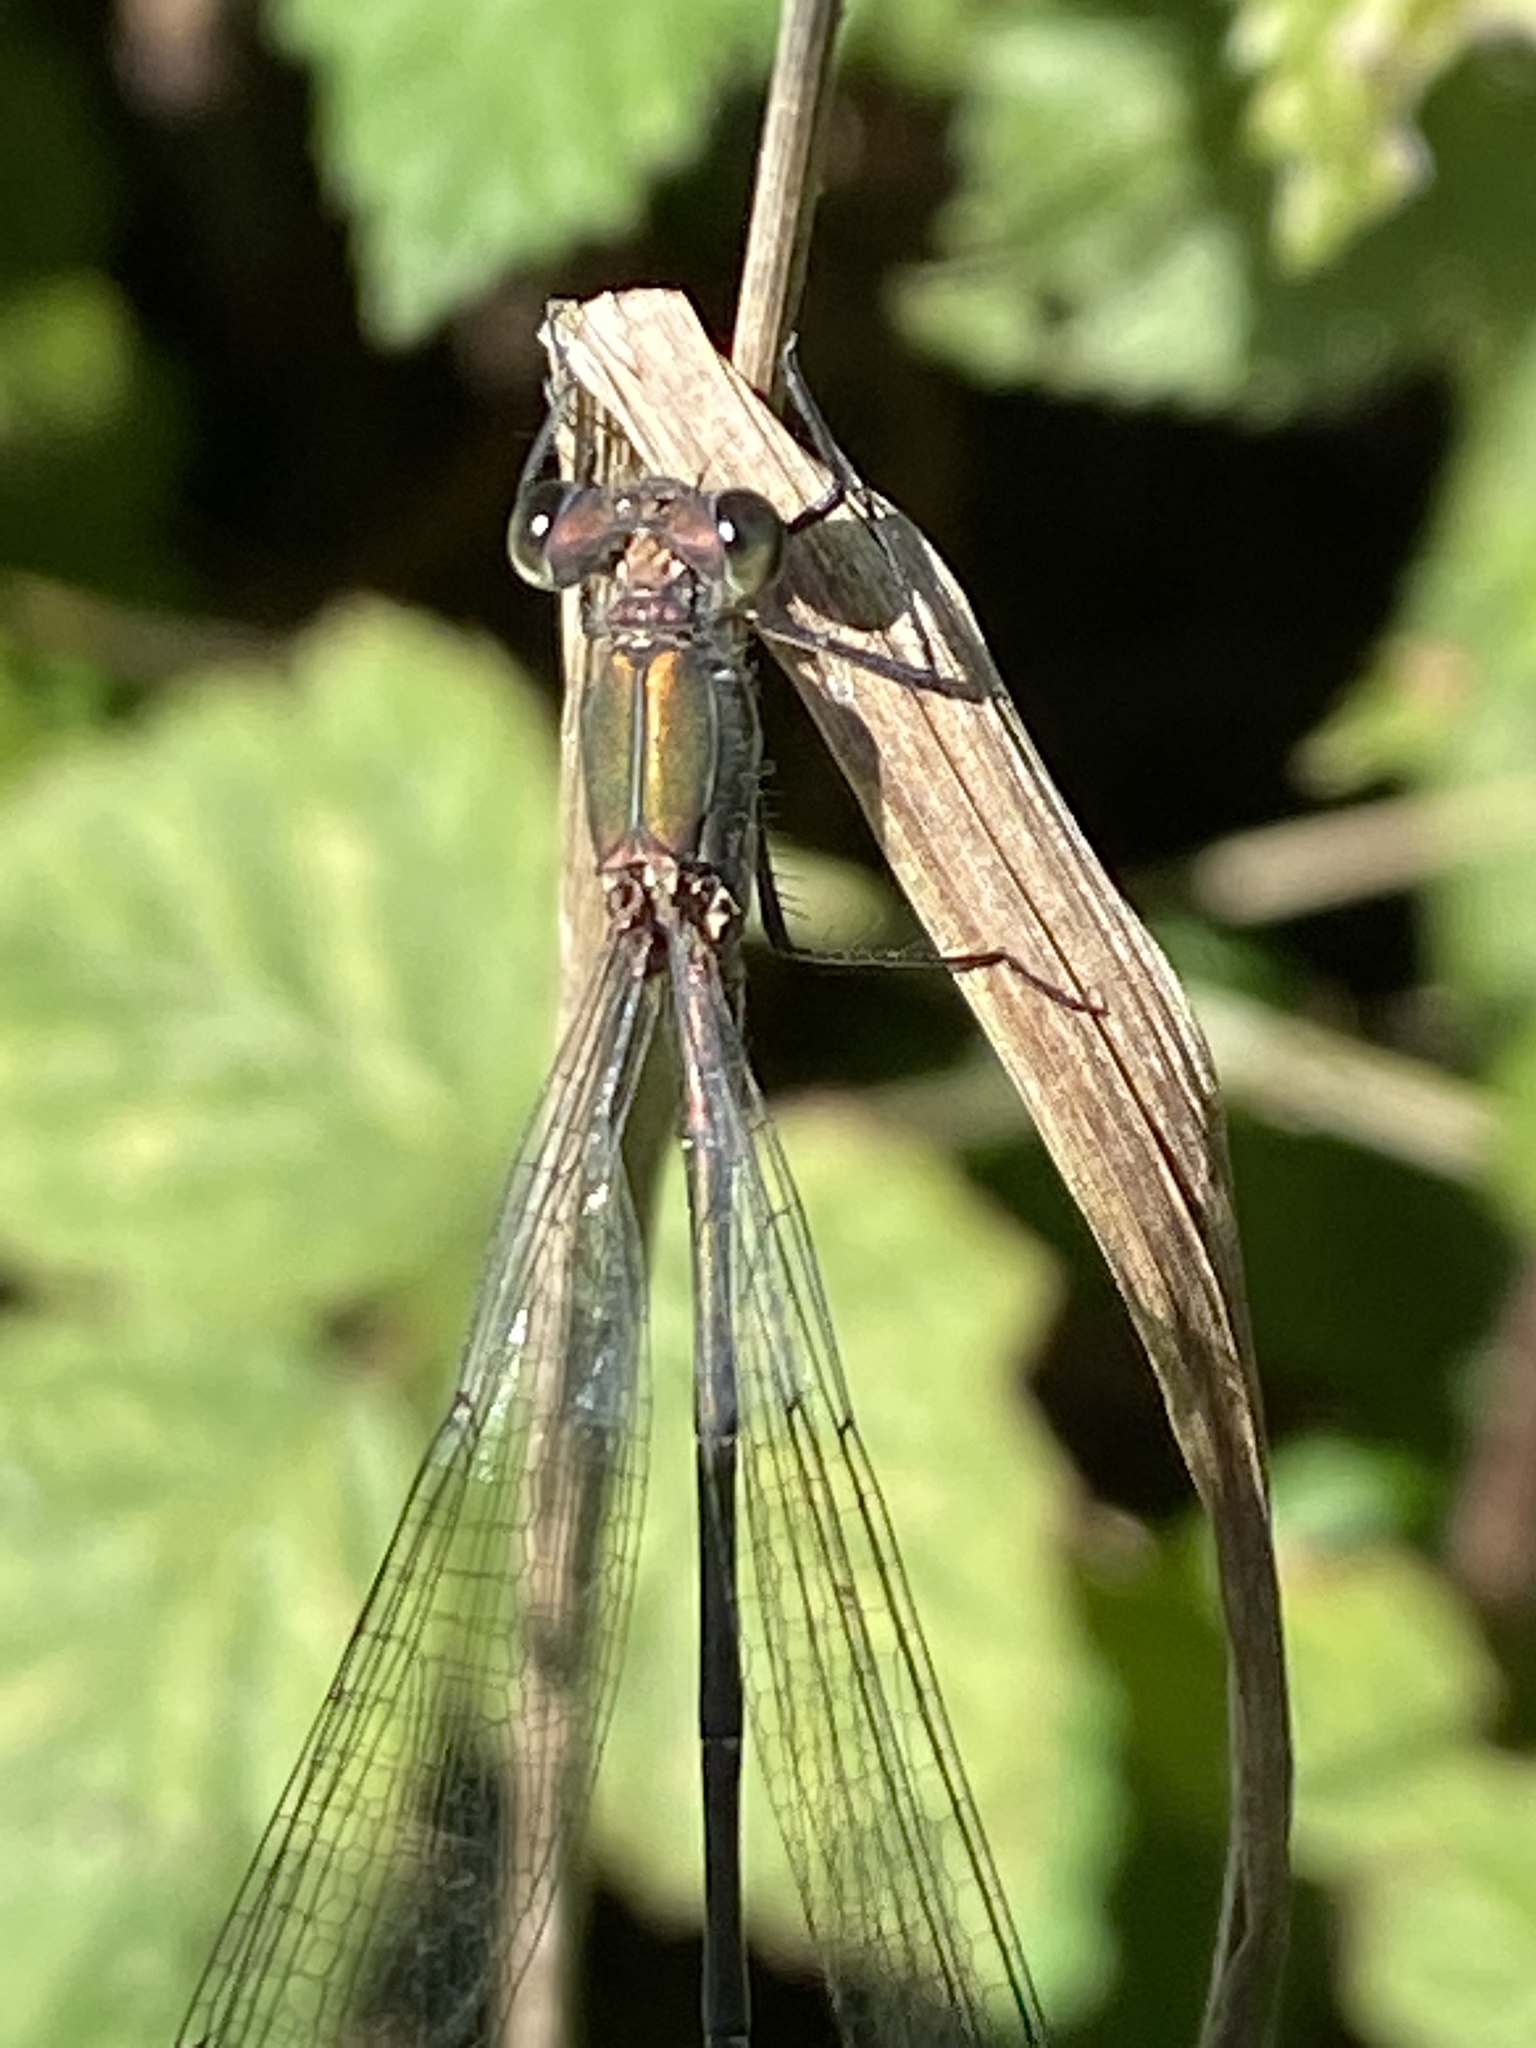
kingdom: Animalia
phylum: Arthropoda
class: Insecta
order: Odonata
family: Lestidae
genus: Chalcolestes
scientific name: Chalcolestes viridis
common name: Green emerald damselfly
